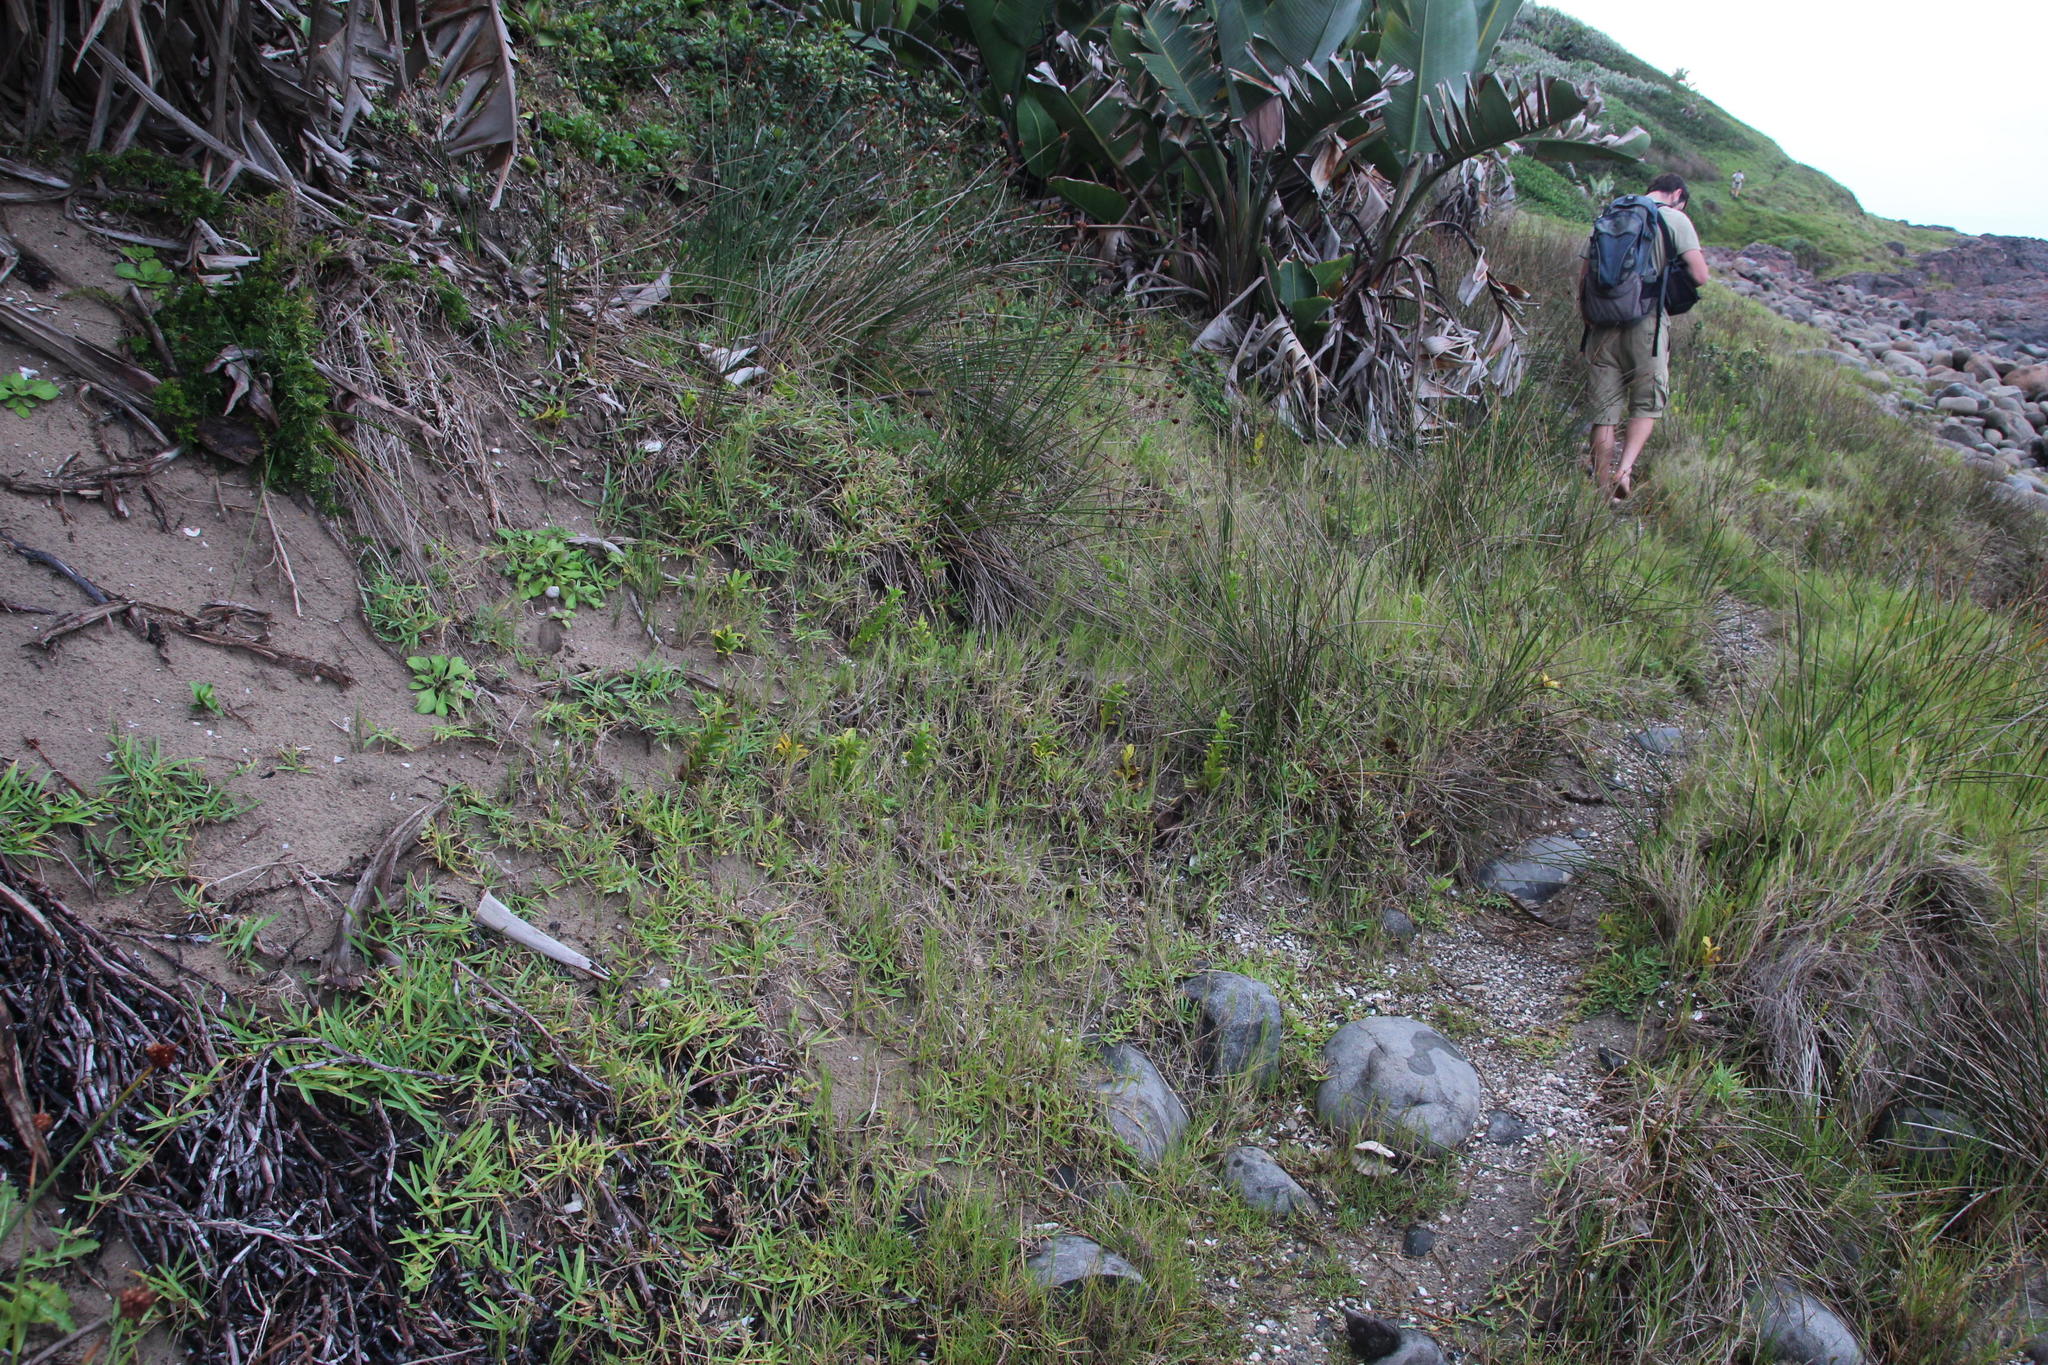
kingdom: Plantae
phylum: Tracheophyta
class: Liliopsida
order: Poales
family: Poaceae
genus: Stenotaphrum
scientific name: Stenotaphrum secundatum
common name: St. augustine grass
